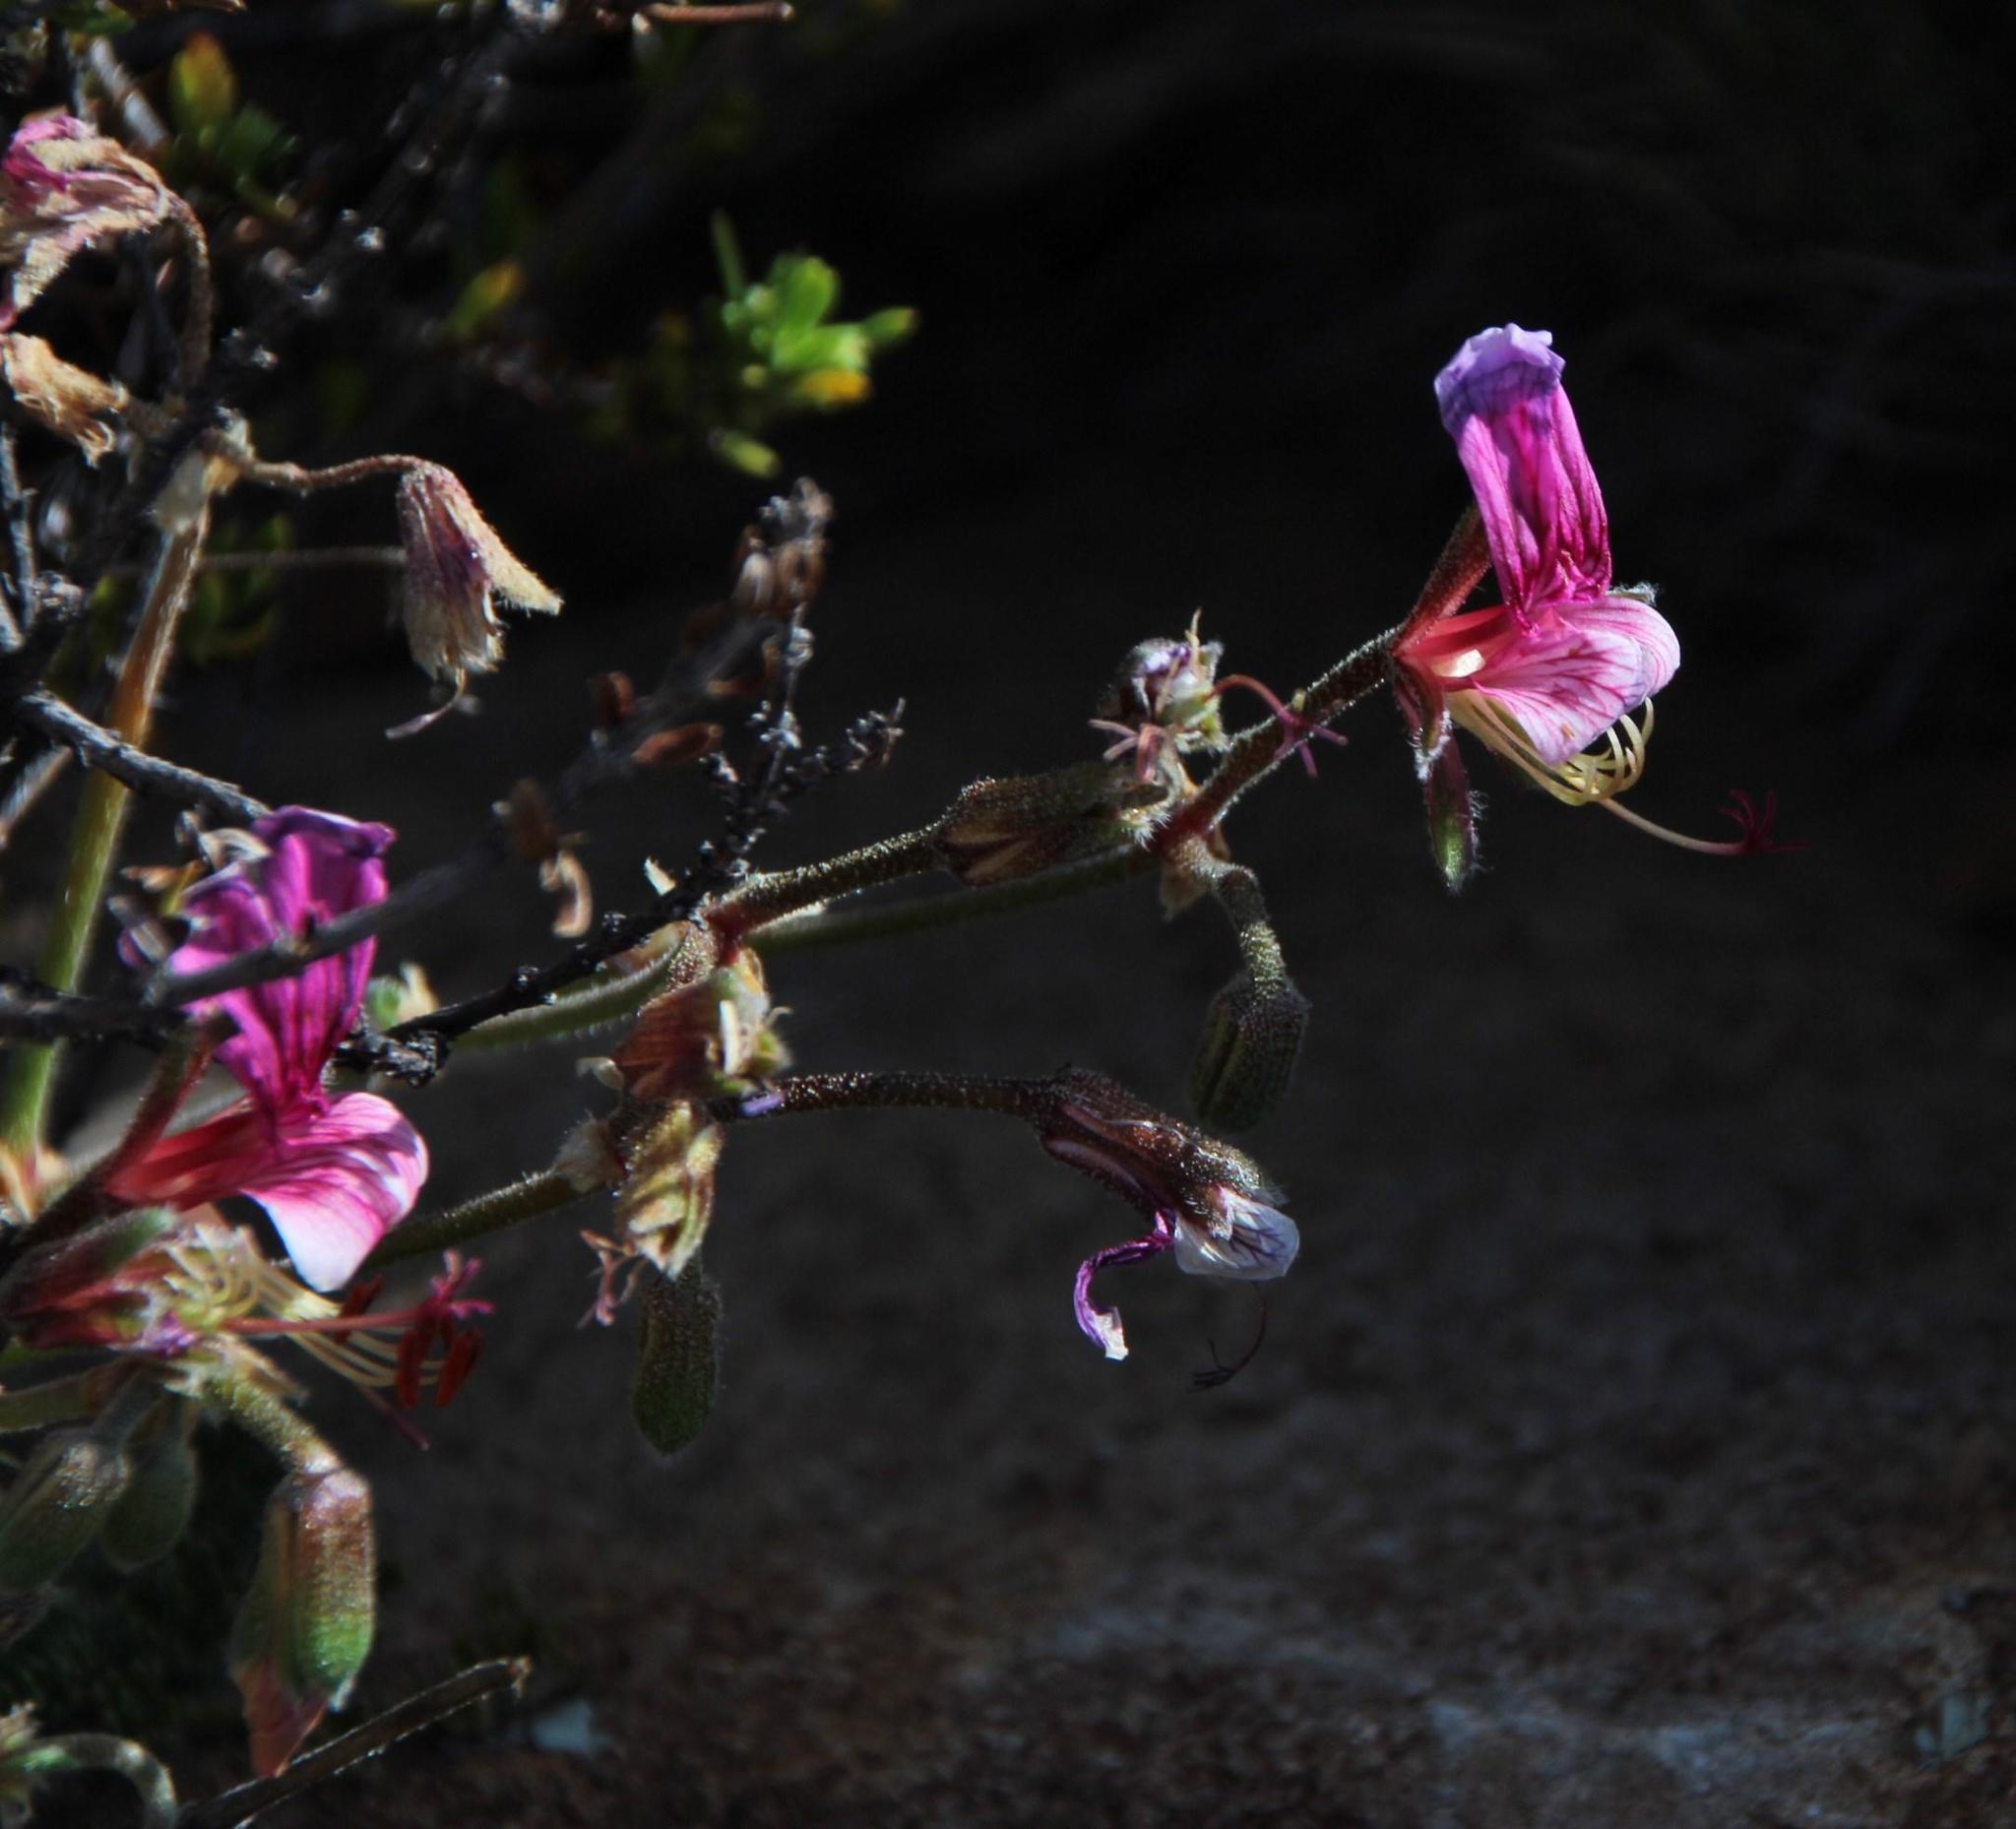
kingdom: Plantae
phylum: Tracheophyta
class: Magnoliopsida
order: Geraniales
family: Geraniaceae
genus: Pelargonium
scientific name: Pelargonium griseum
